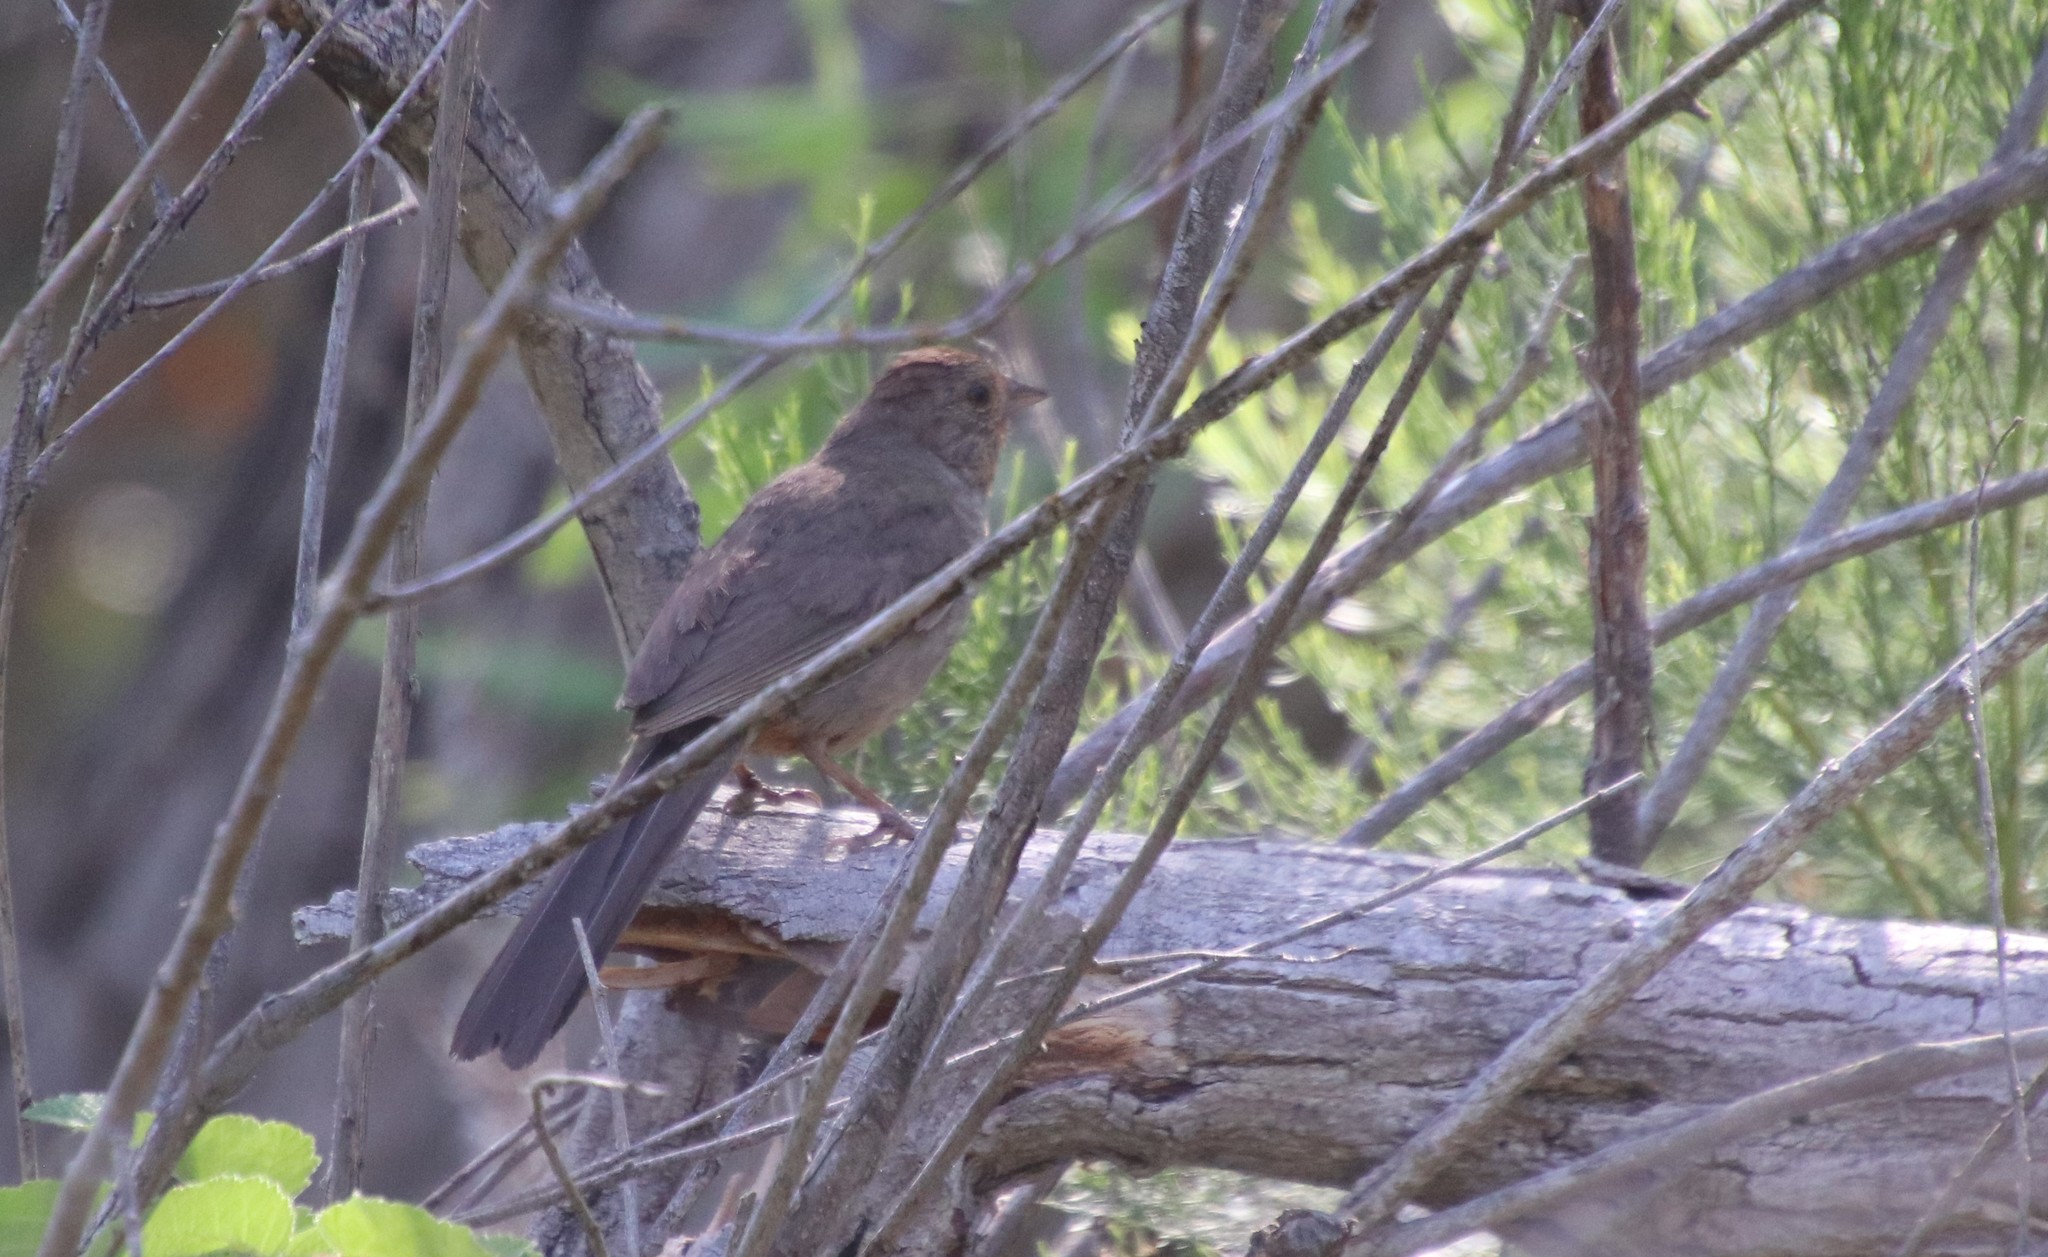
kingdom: Animalia
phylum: Chordata
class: Aves
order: Passeriformes
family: Passerellidae
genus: Melozone
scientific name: Melozone crissalis
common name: California towhee
